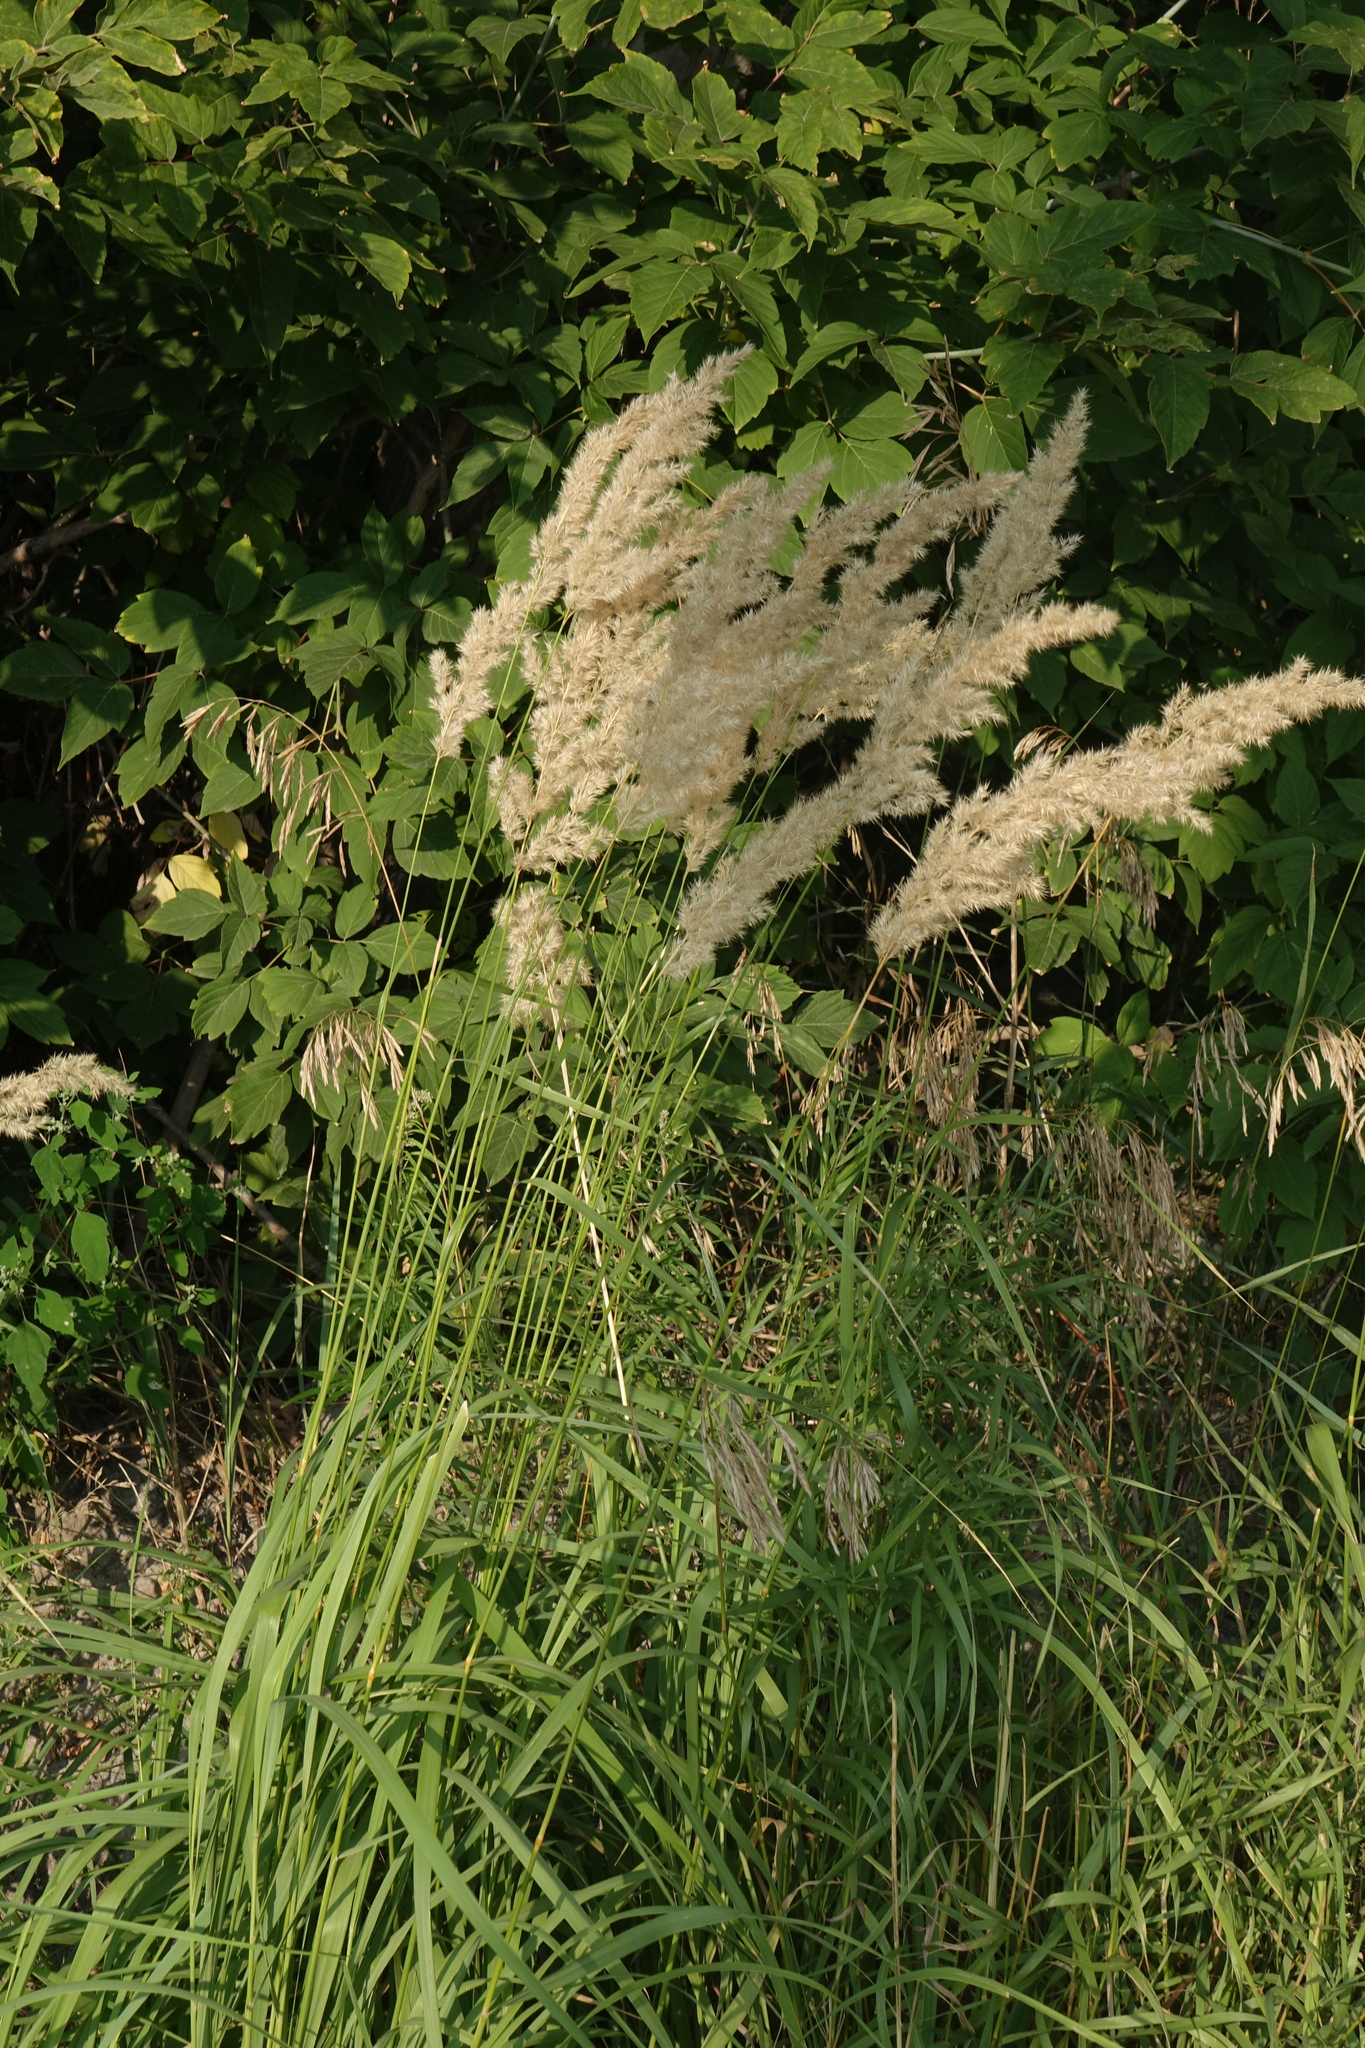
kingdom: Plantae
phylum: Tracheophyta
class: Liliopsida
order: Poales
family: Poaceae
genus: Calamagrostis
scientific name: Calamagrostis epigejos
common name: Wood small-reed
